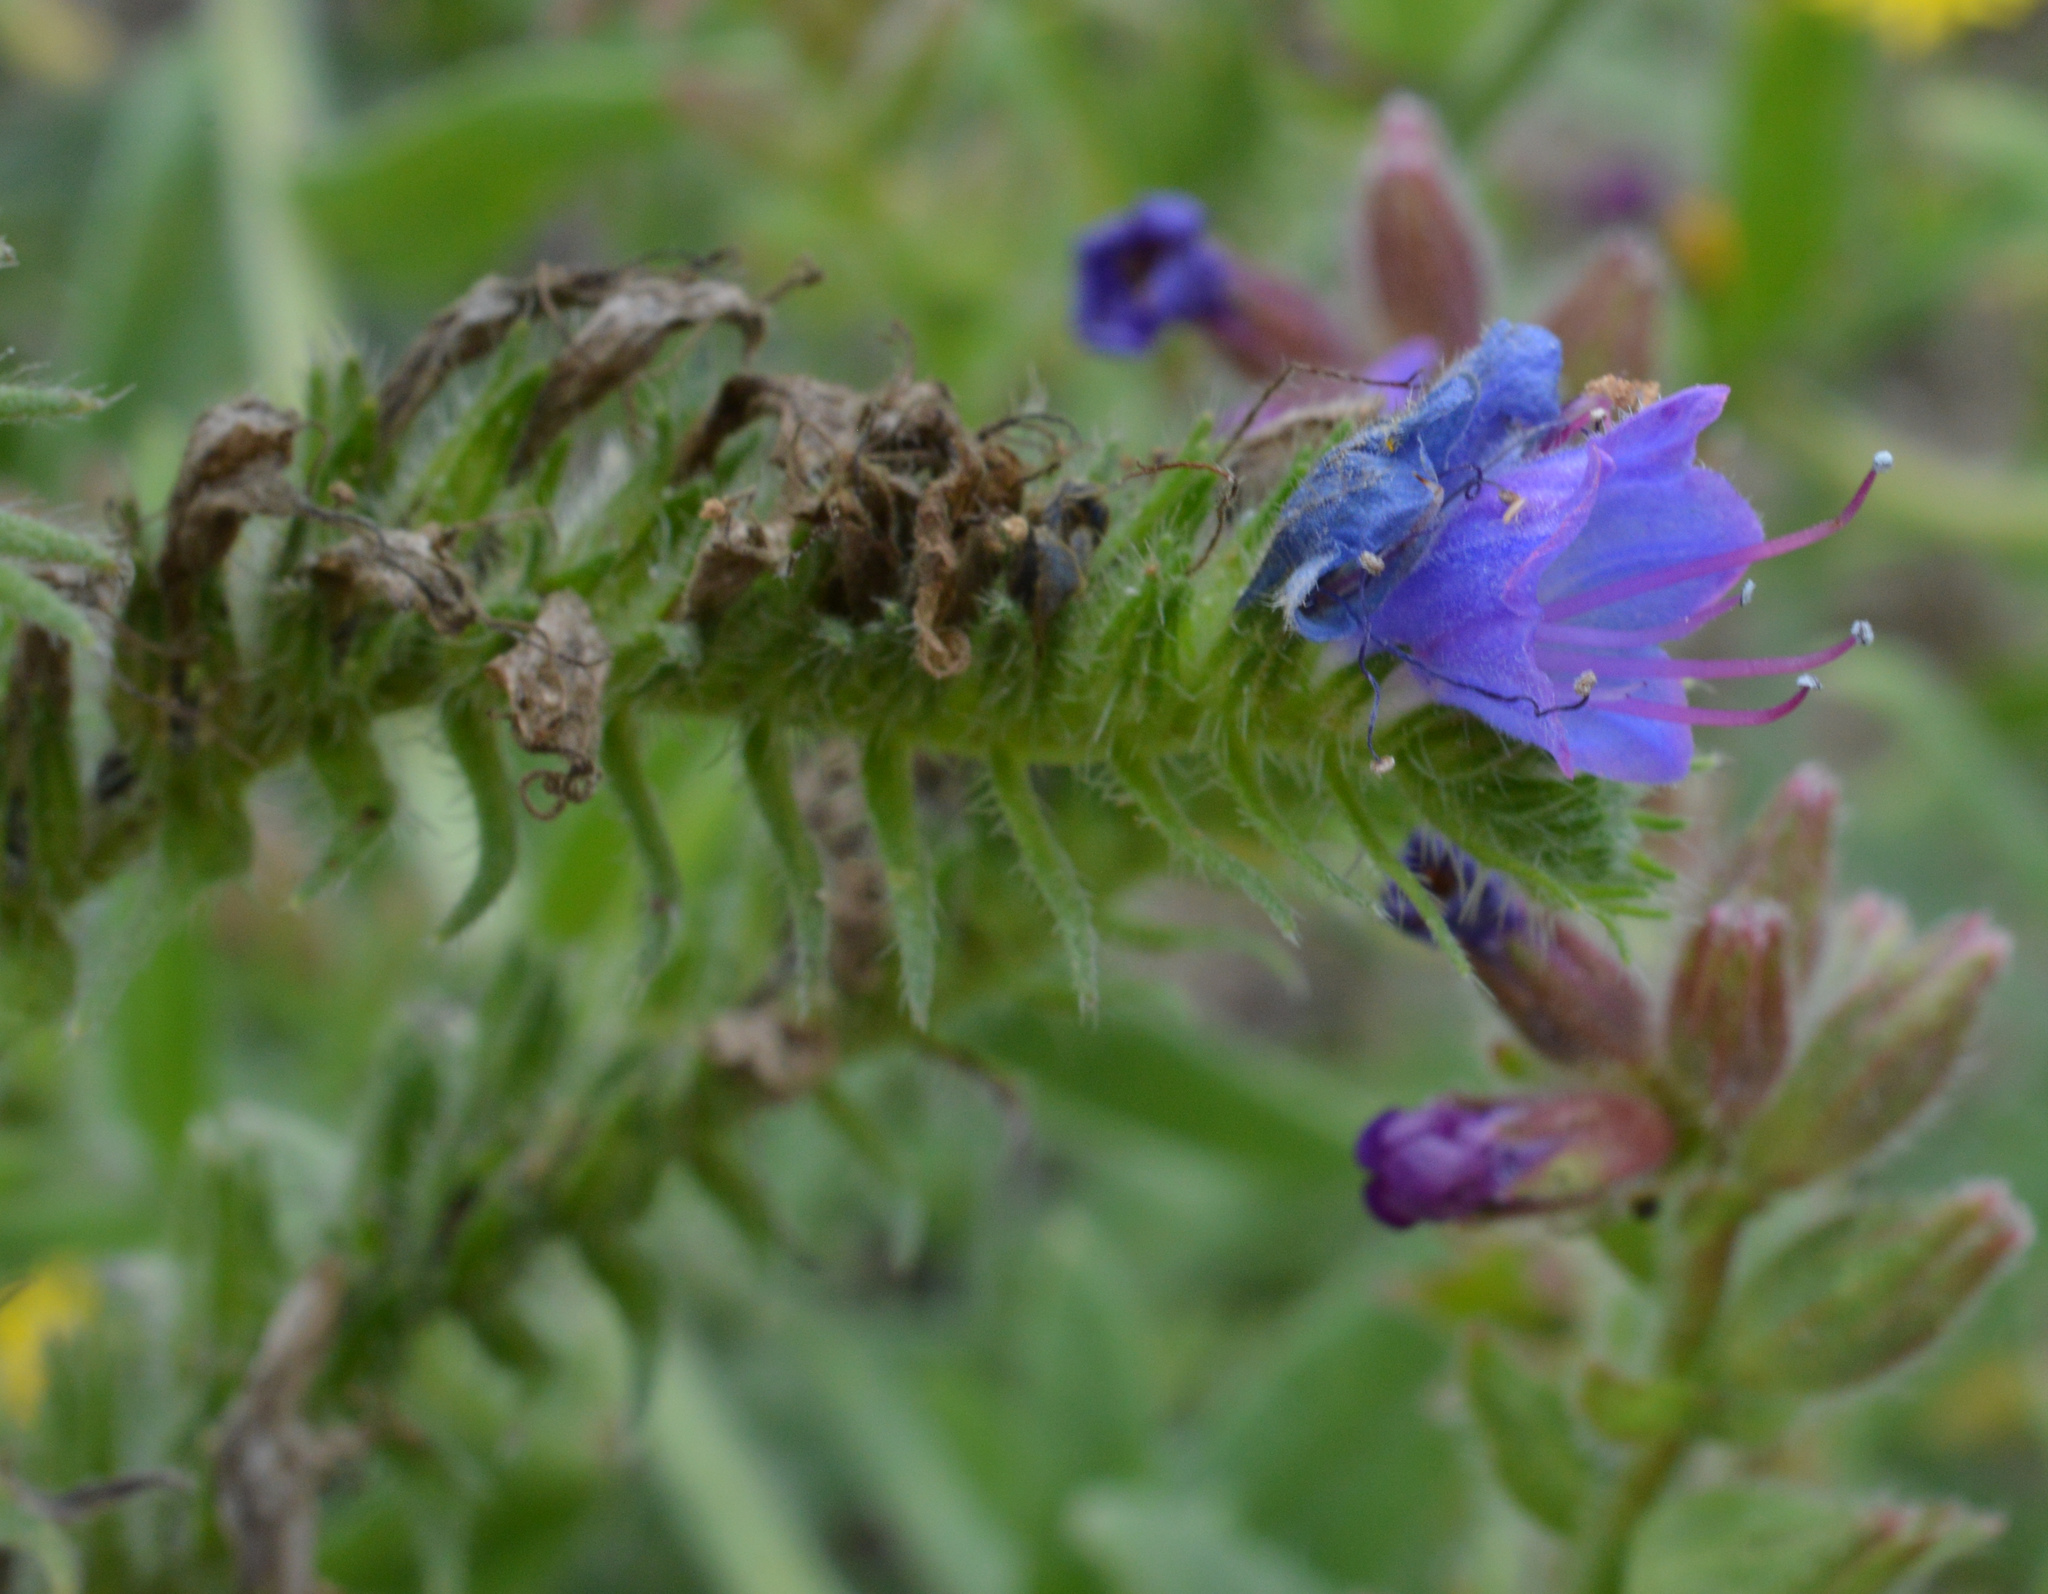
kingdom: Plantae
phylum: Tracheophyta
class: Magnoliopsida
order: Boraginales
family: Boraginaceae
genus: Echium
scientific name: Echium vulgare
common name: Common viper's bugloss
